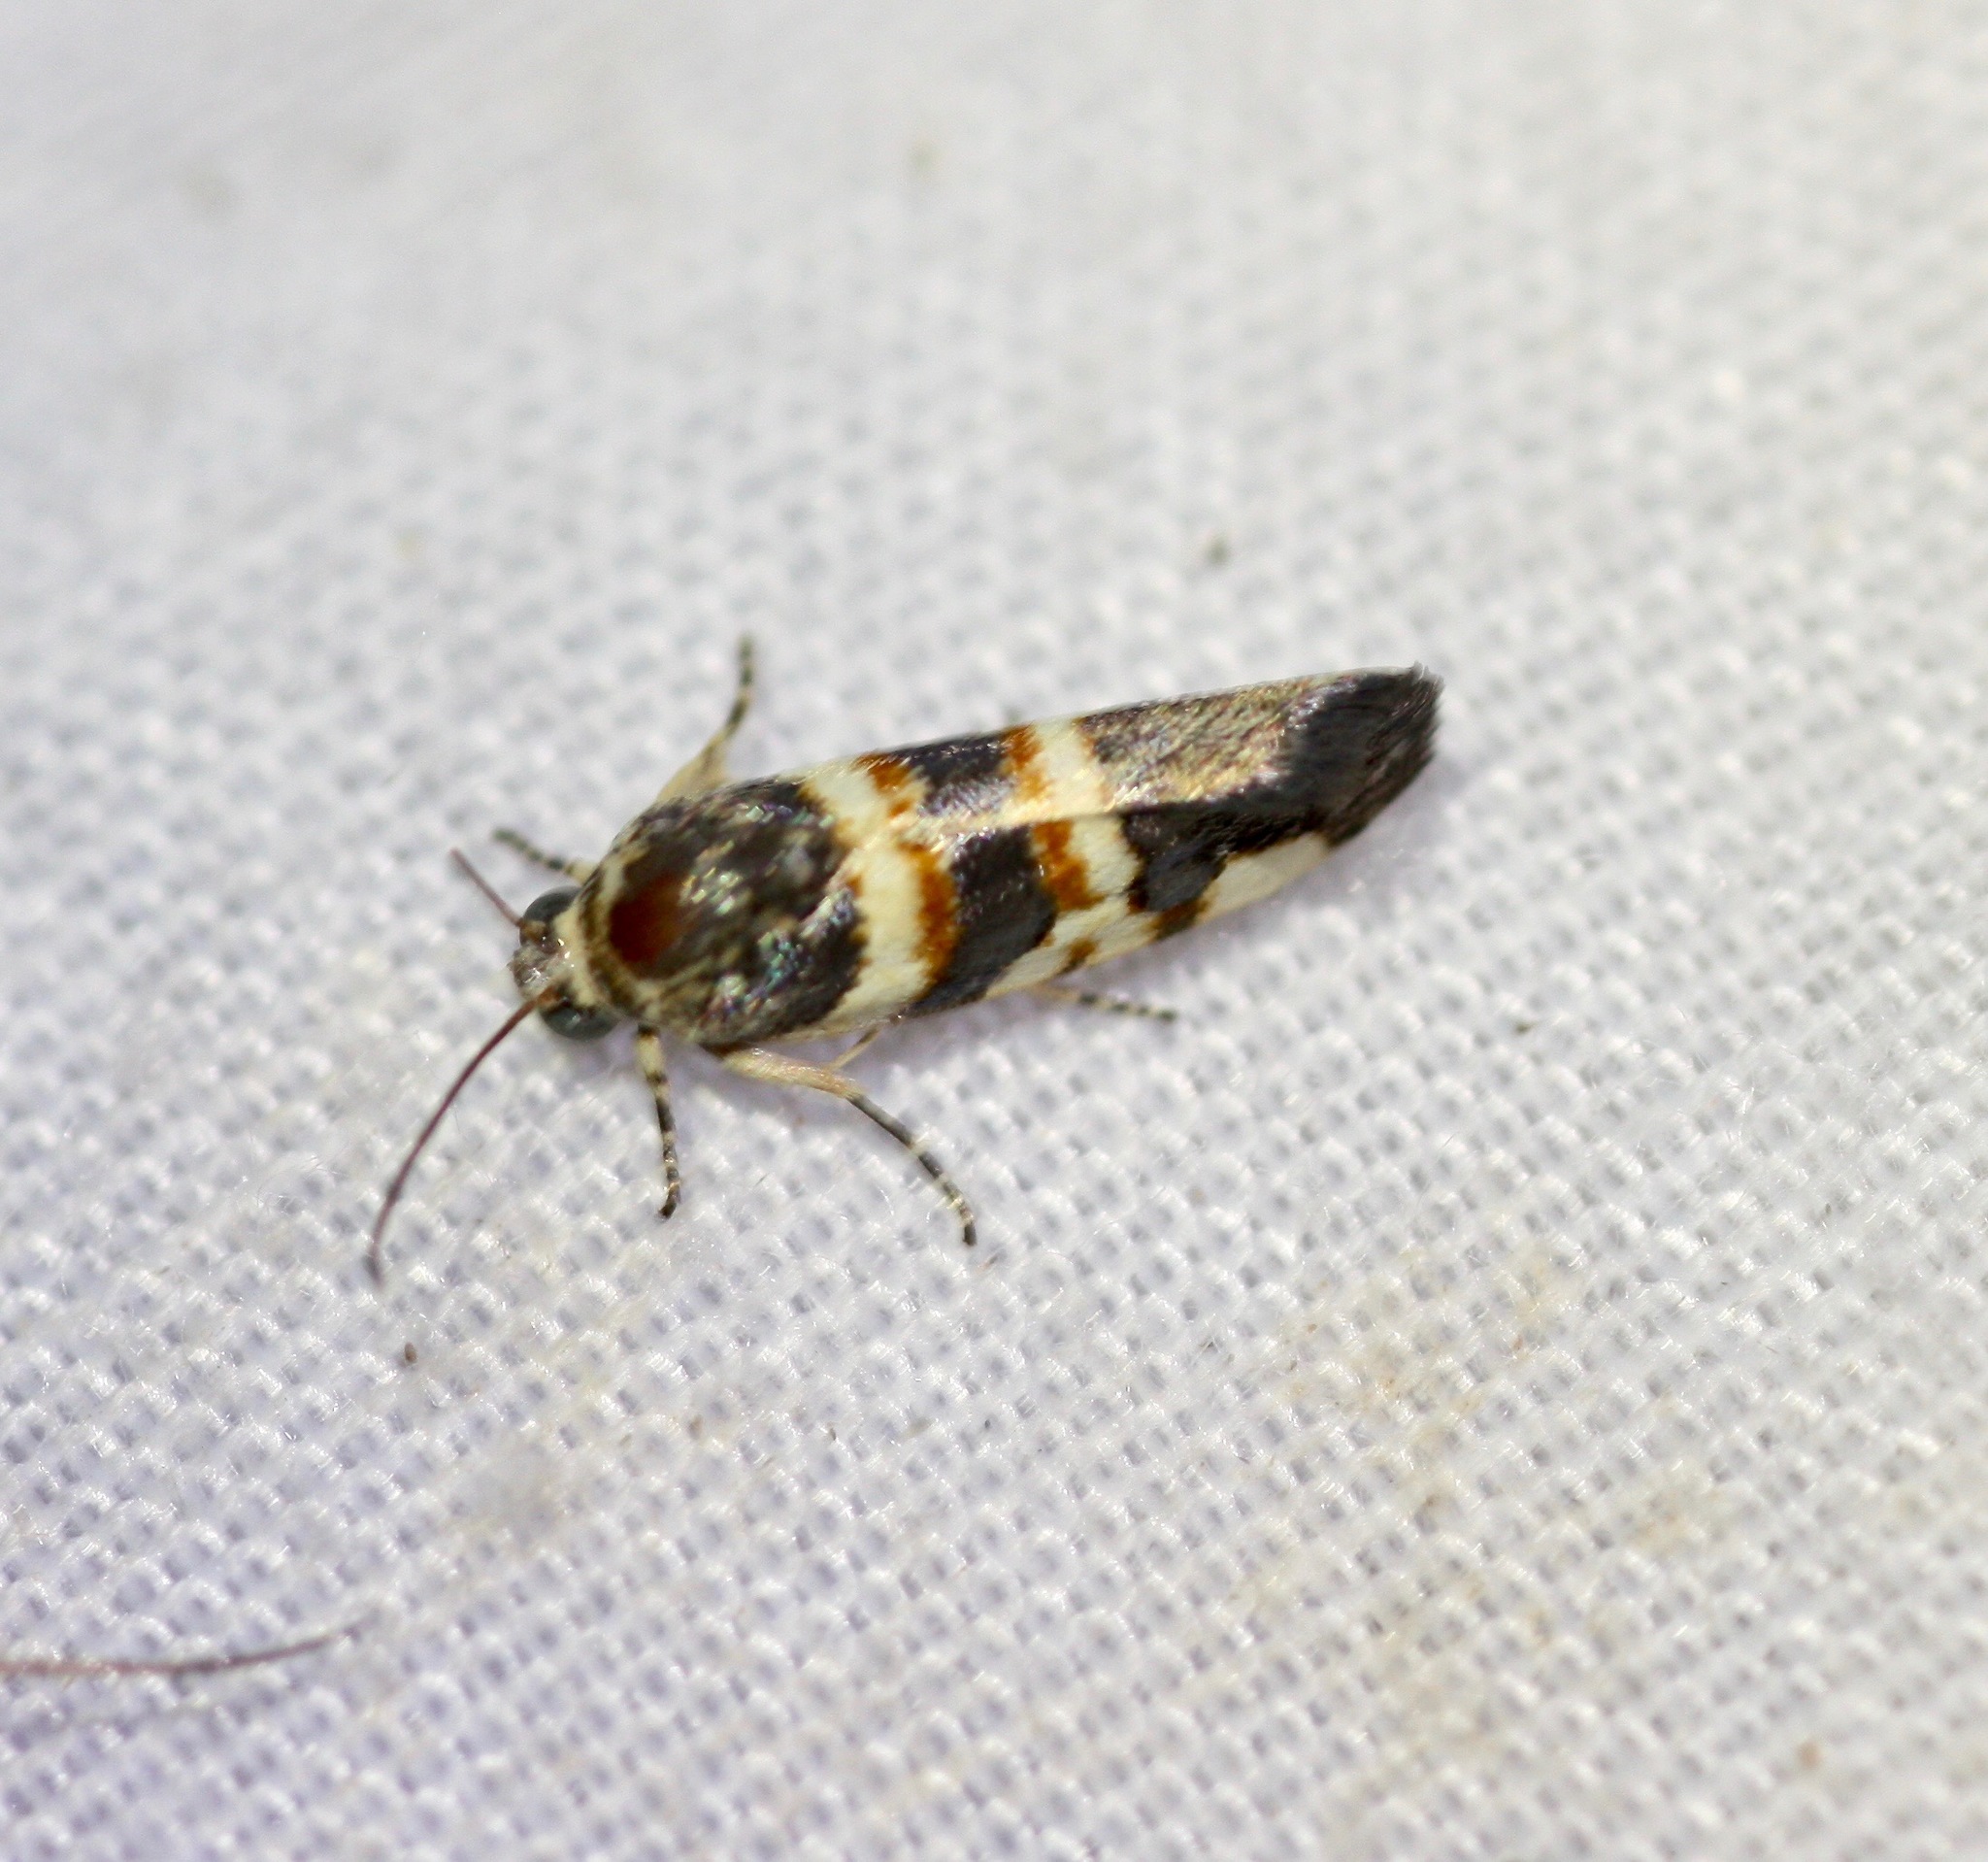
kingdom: Animalia
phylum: Arthropoda
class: Insecta
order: Lepidoptera
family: Noctuidae
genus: Spragueia
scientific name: Spragueia funeralis
